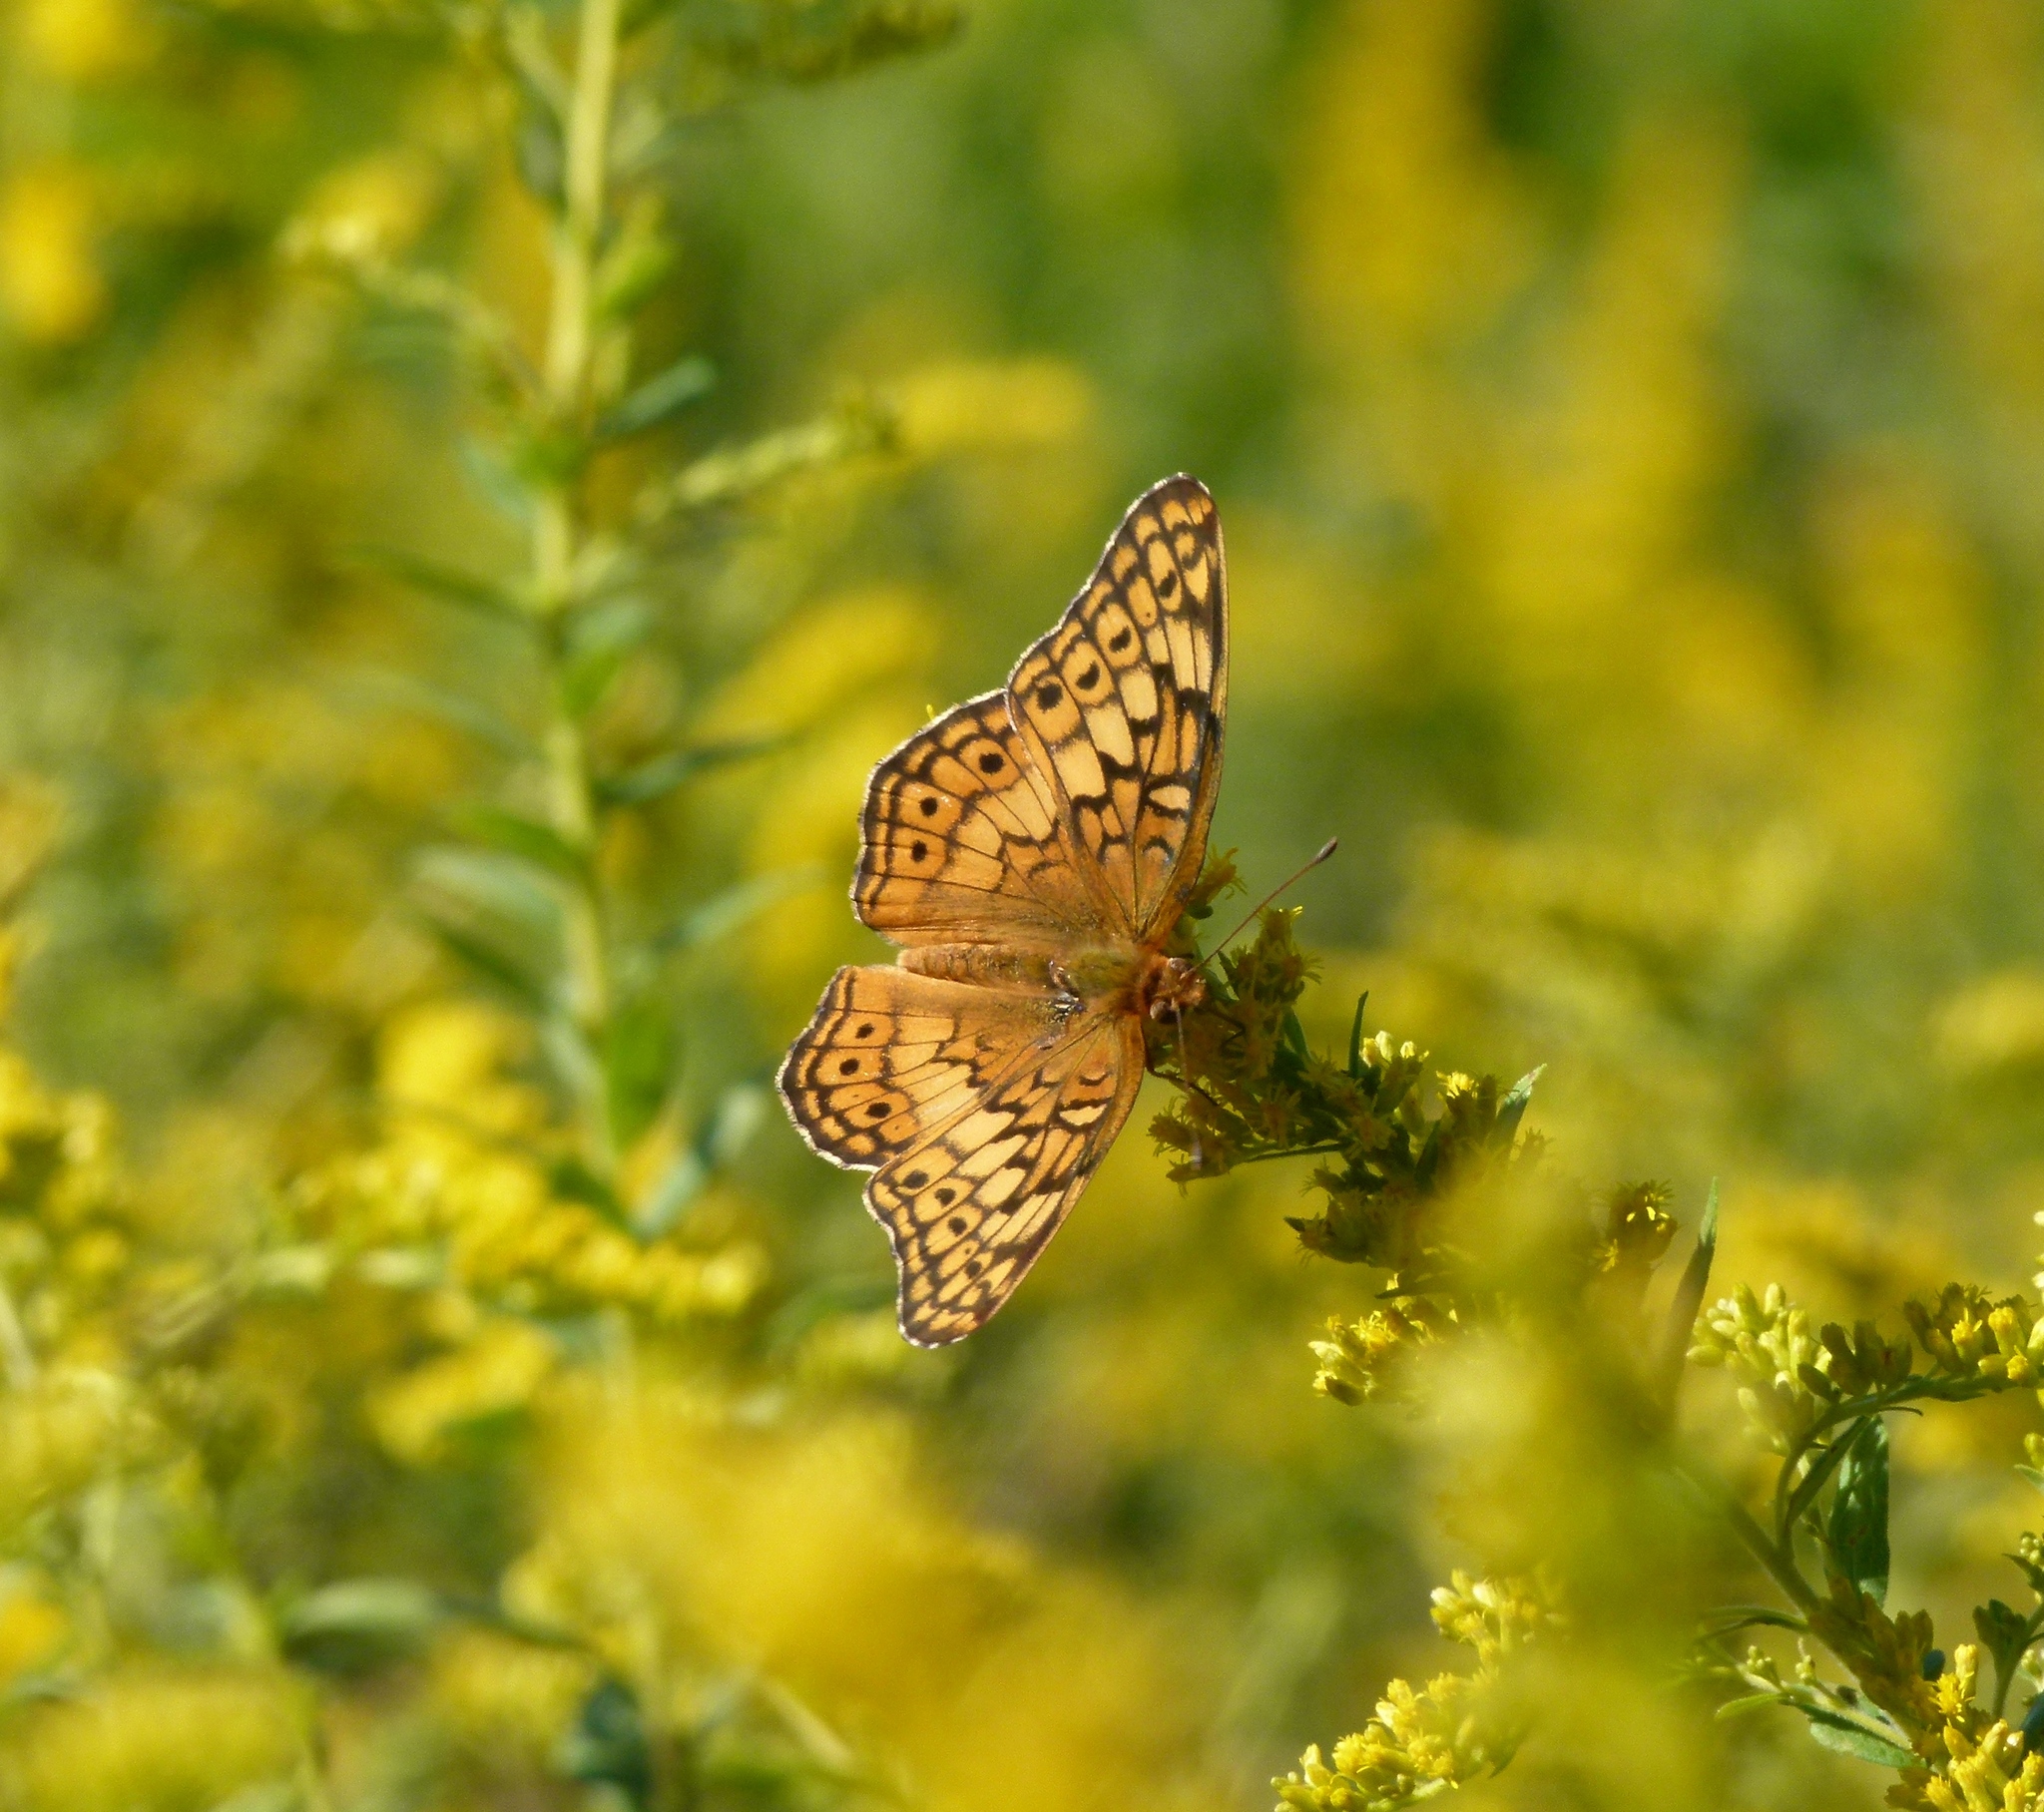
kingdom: Animalia
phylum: Arthropoda
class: Insecta
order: Lepidoptera
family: Nymphalidae
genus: Euptoieta
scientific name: Euptoieta claudia
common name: Variegated fritillary
